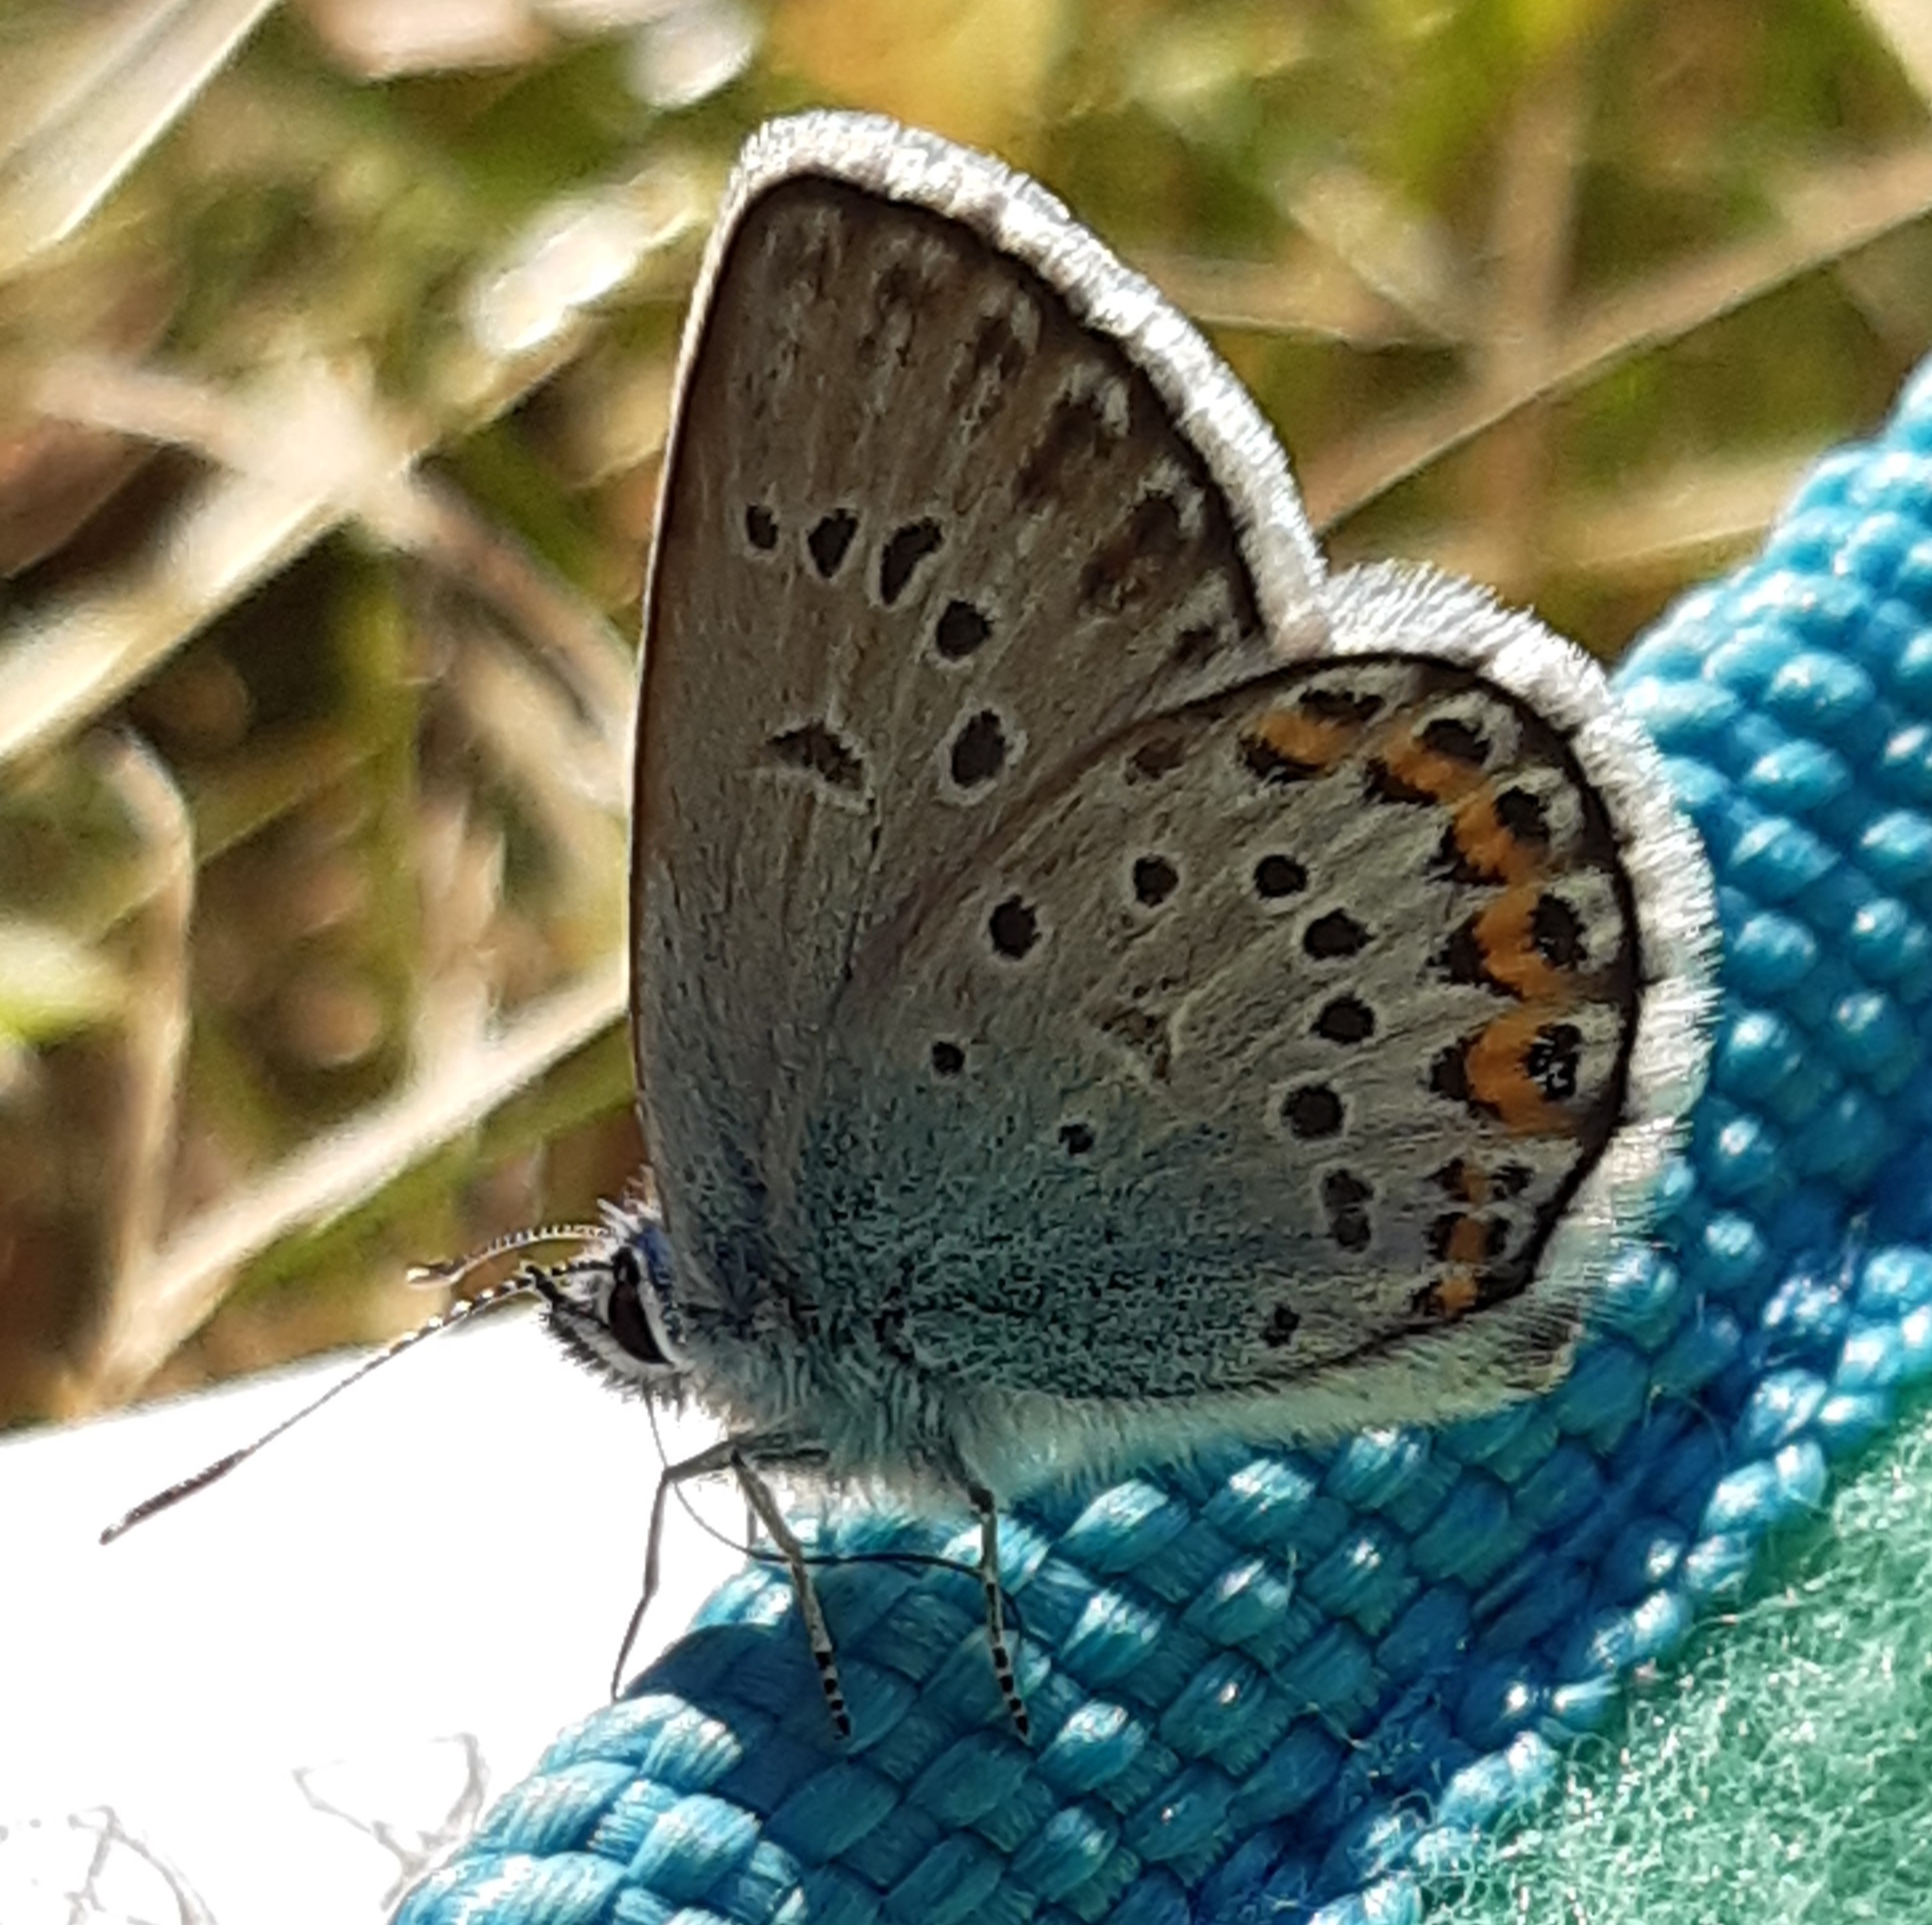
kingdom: Animalia
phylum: Arthropoda
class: Insecta
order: Lepidoptera
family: Lycaenidae
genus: Plebejus
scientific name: Plebejus argus
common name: Silver-studded blue
